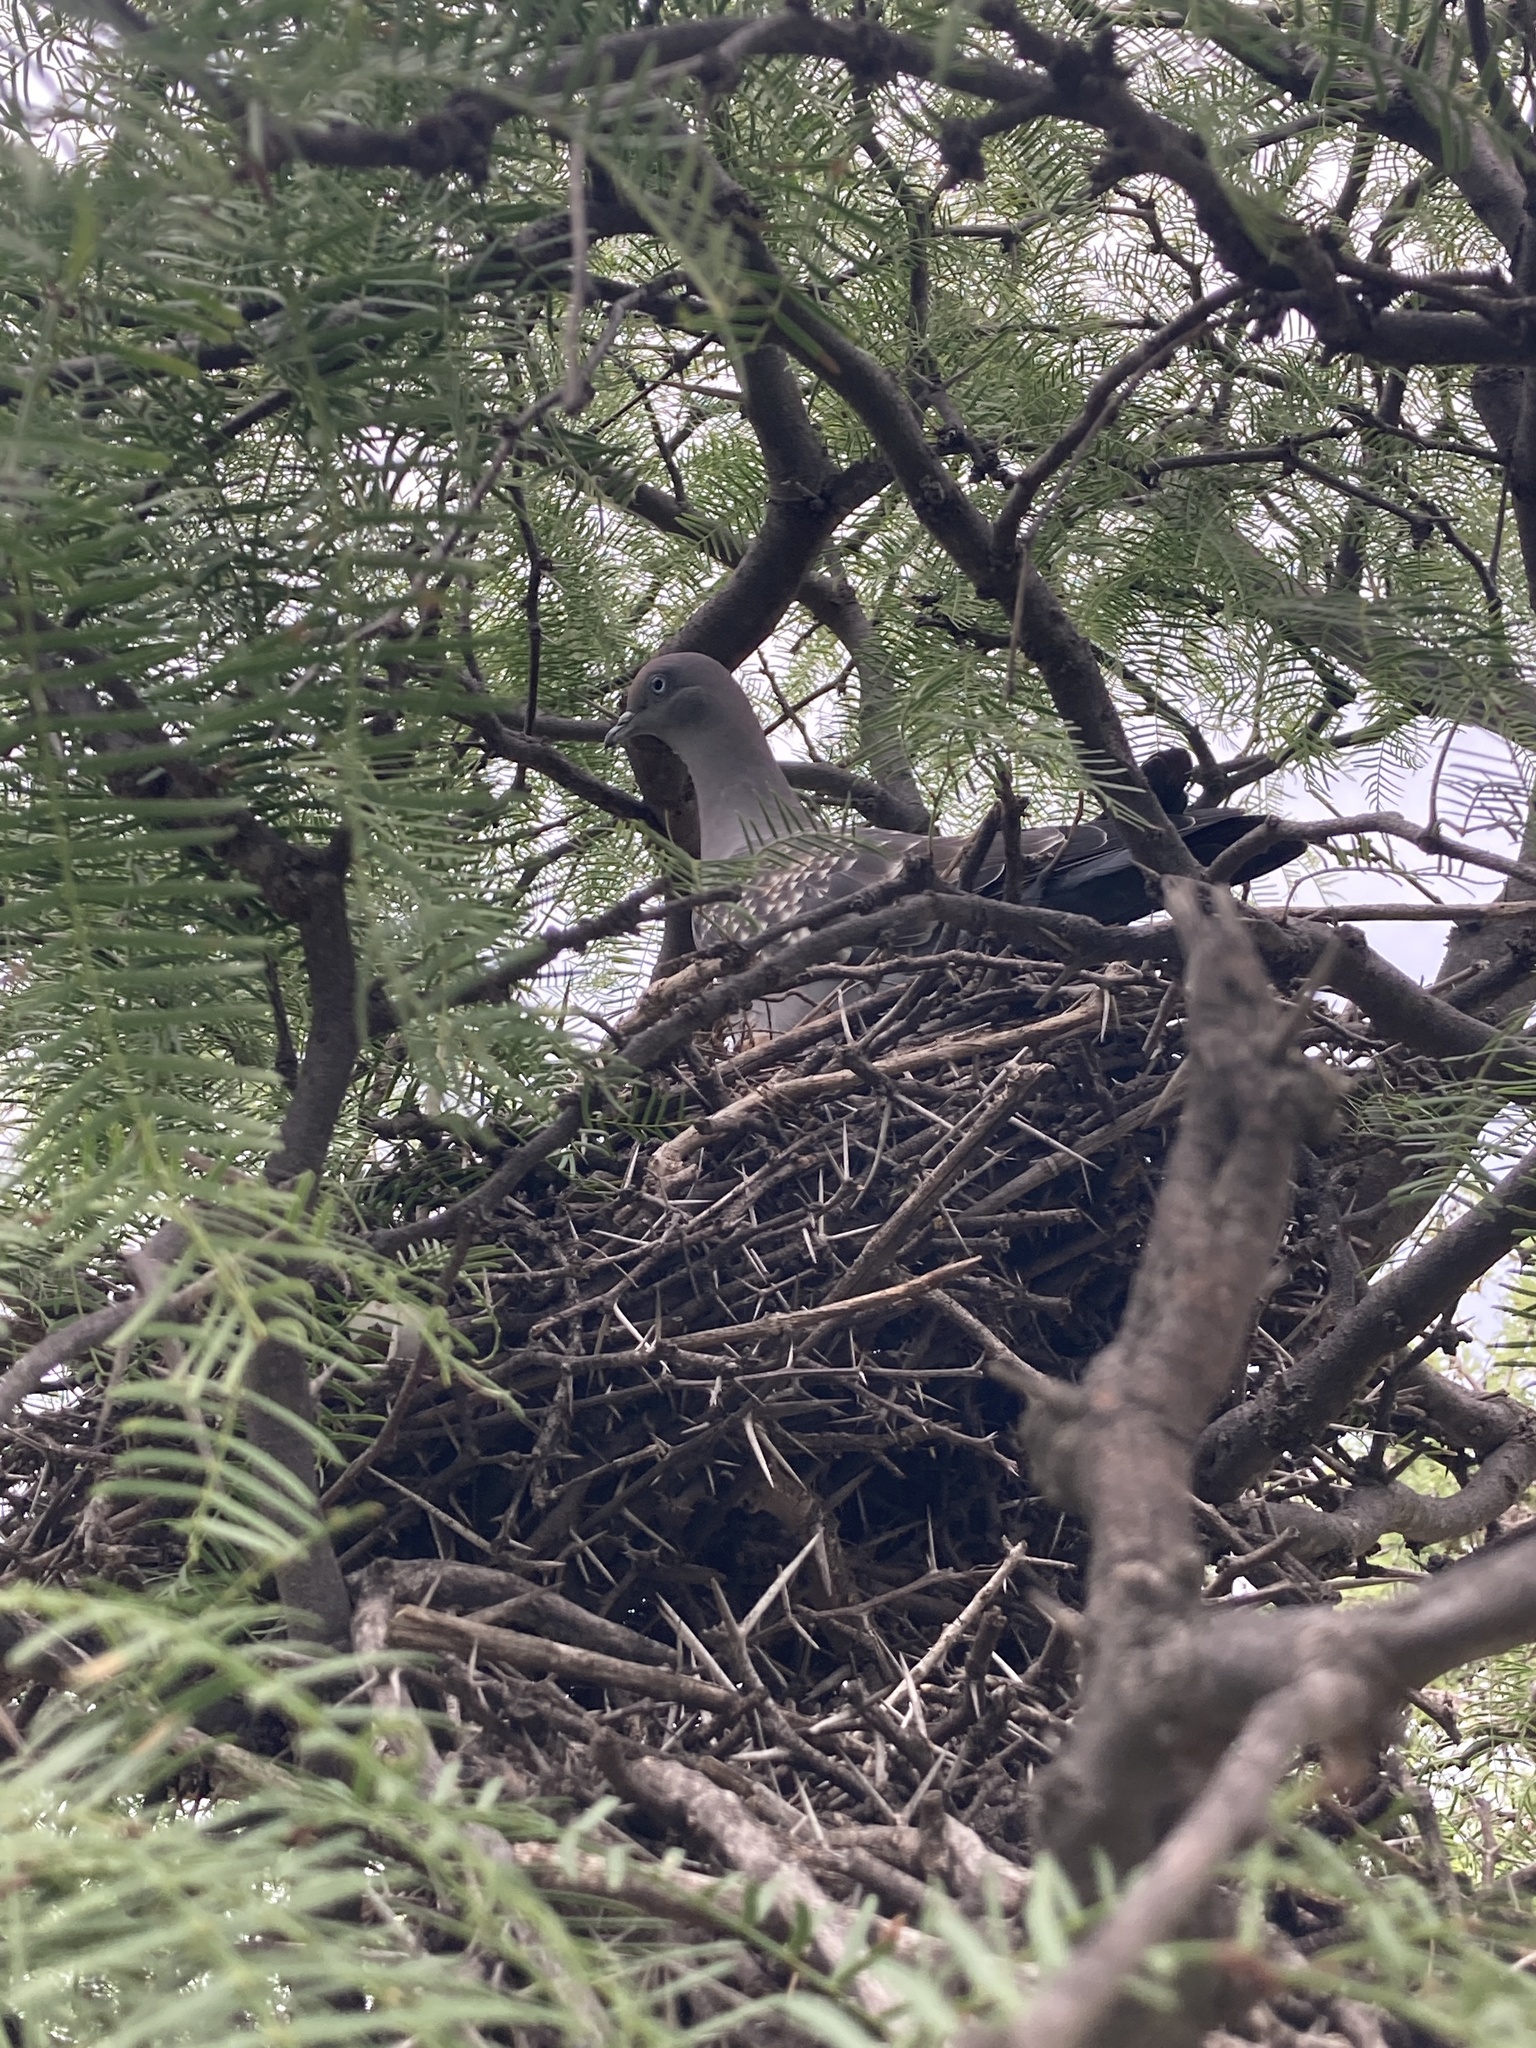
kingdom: Animalia
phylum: Chordata
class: Aves
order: Columbiformes
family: Columbidae
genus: Patagioenas
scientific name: Patagioenas maculosa
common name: Spot-winged pigeon
